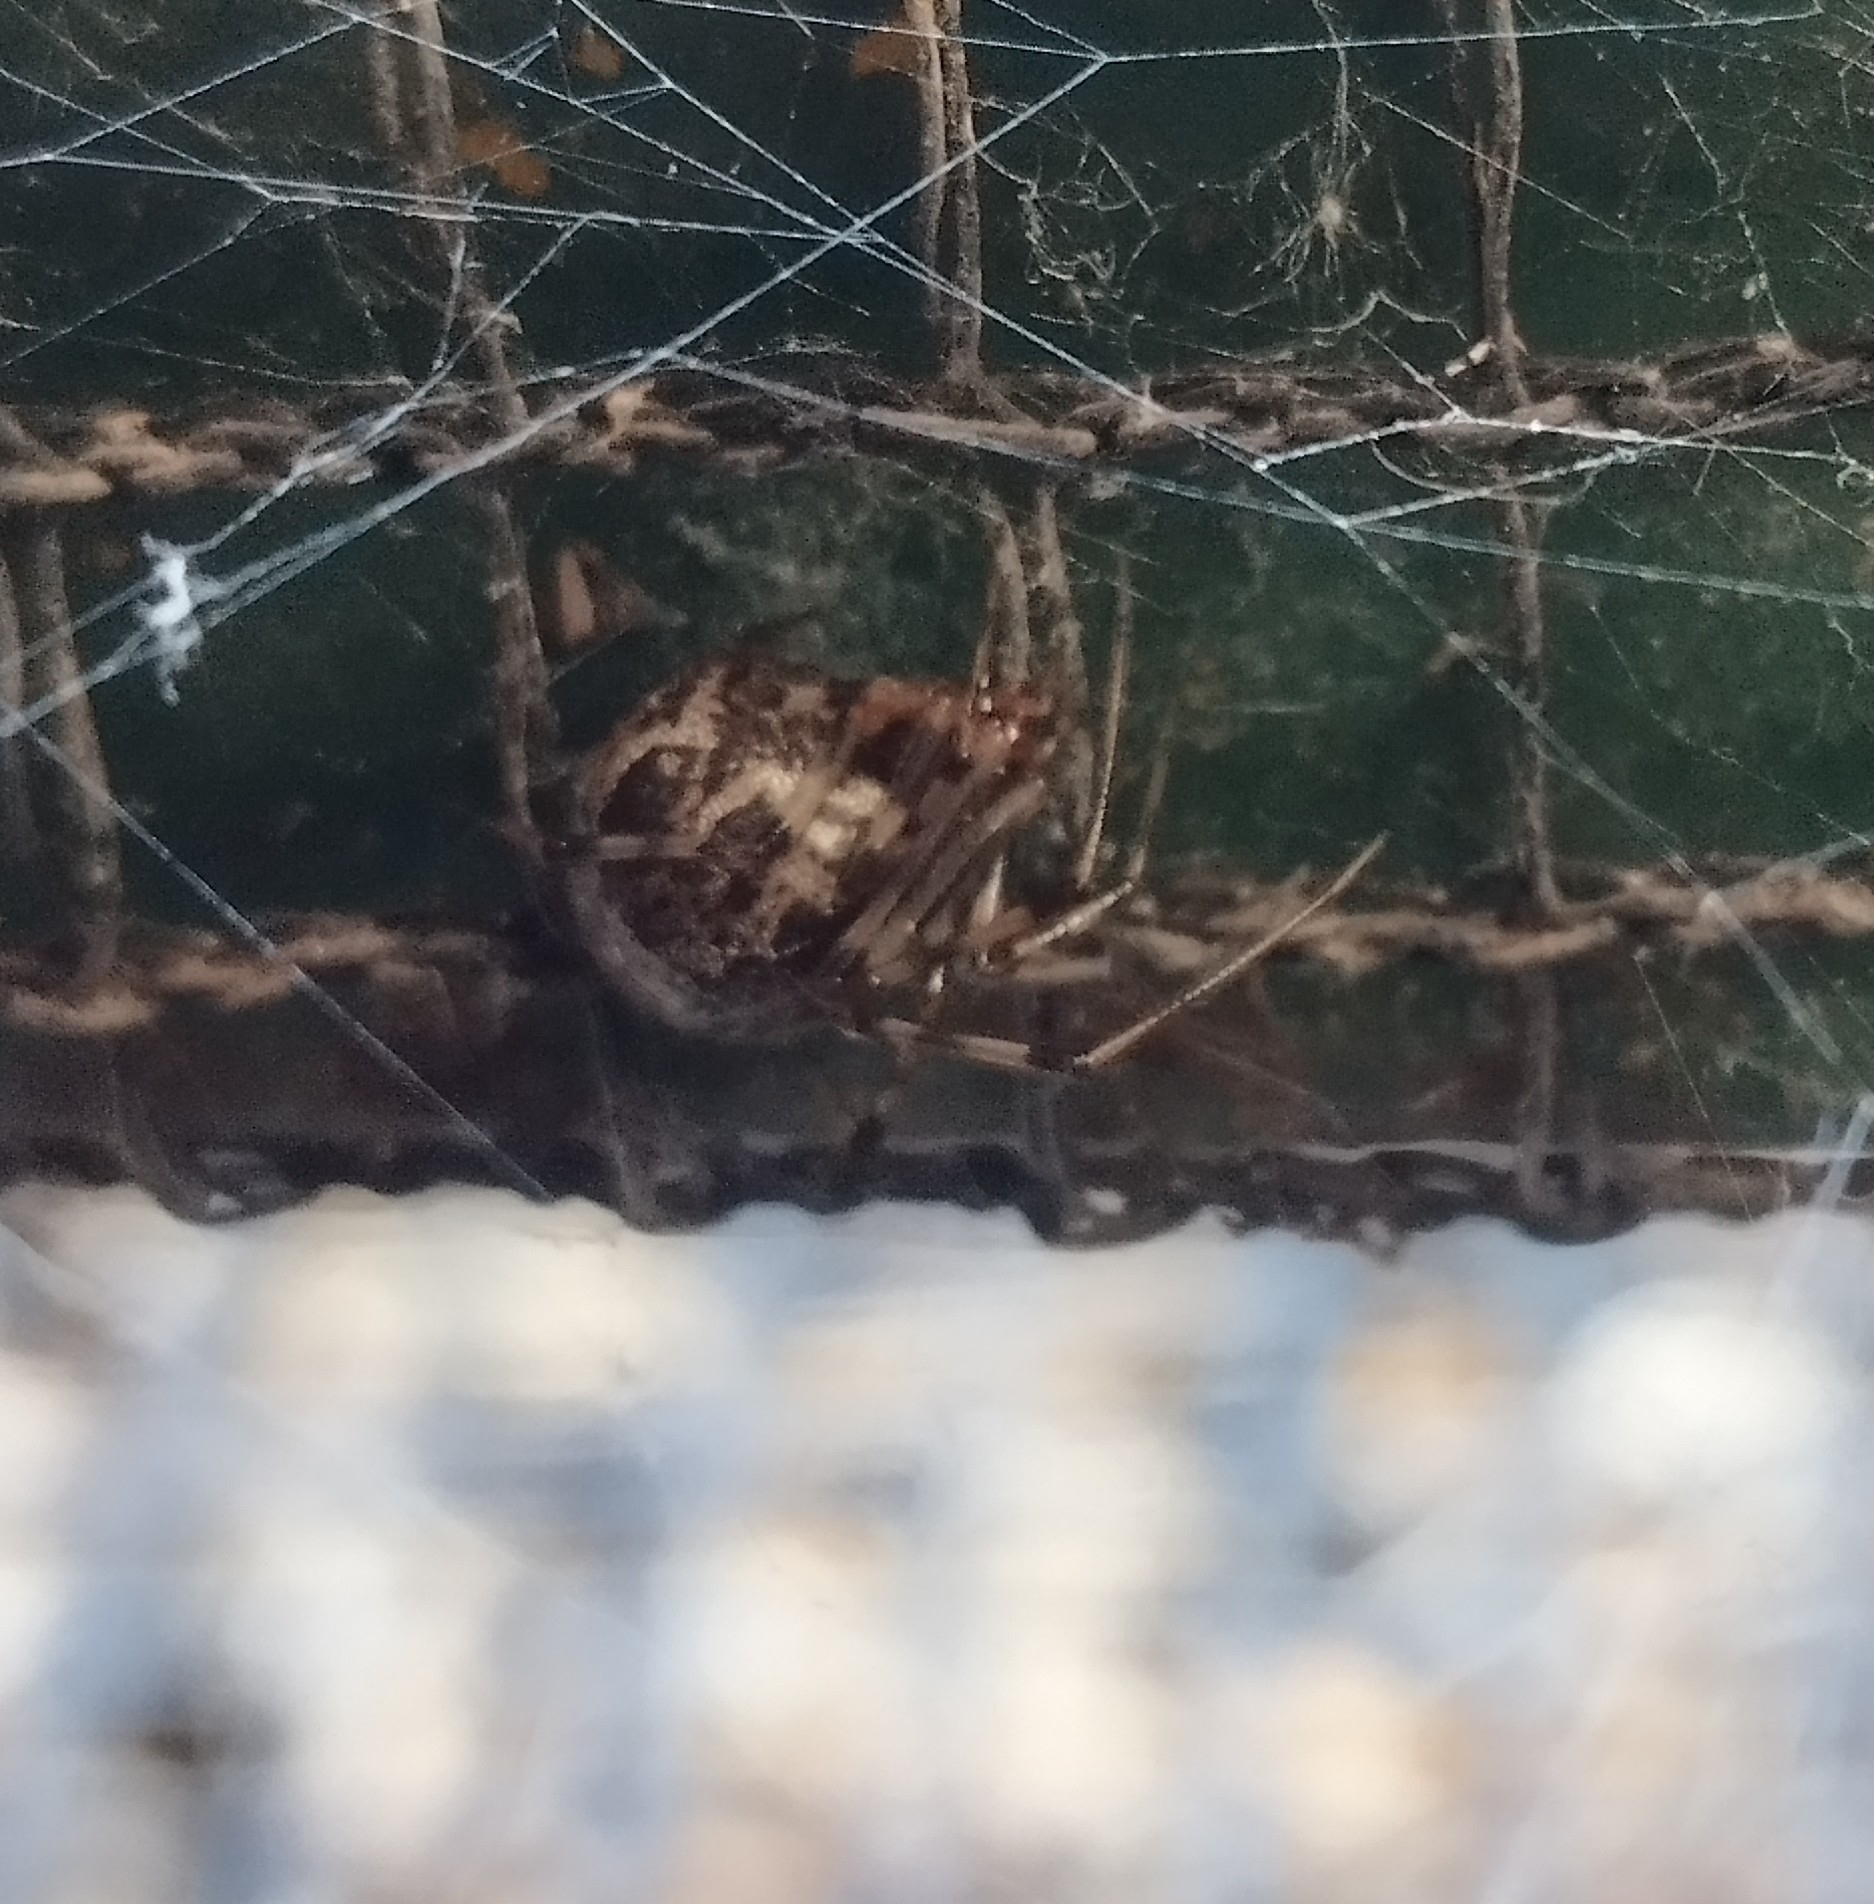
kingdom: Animalia
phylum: Arthropoda
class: Arachnida
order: Araneae
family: Theridiidae
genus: Parasteatoda
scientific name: Parasteatoda tepidariorum
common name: Common house spider
